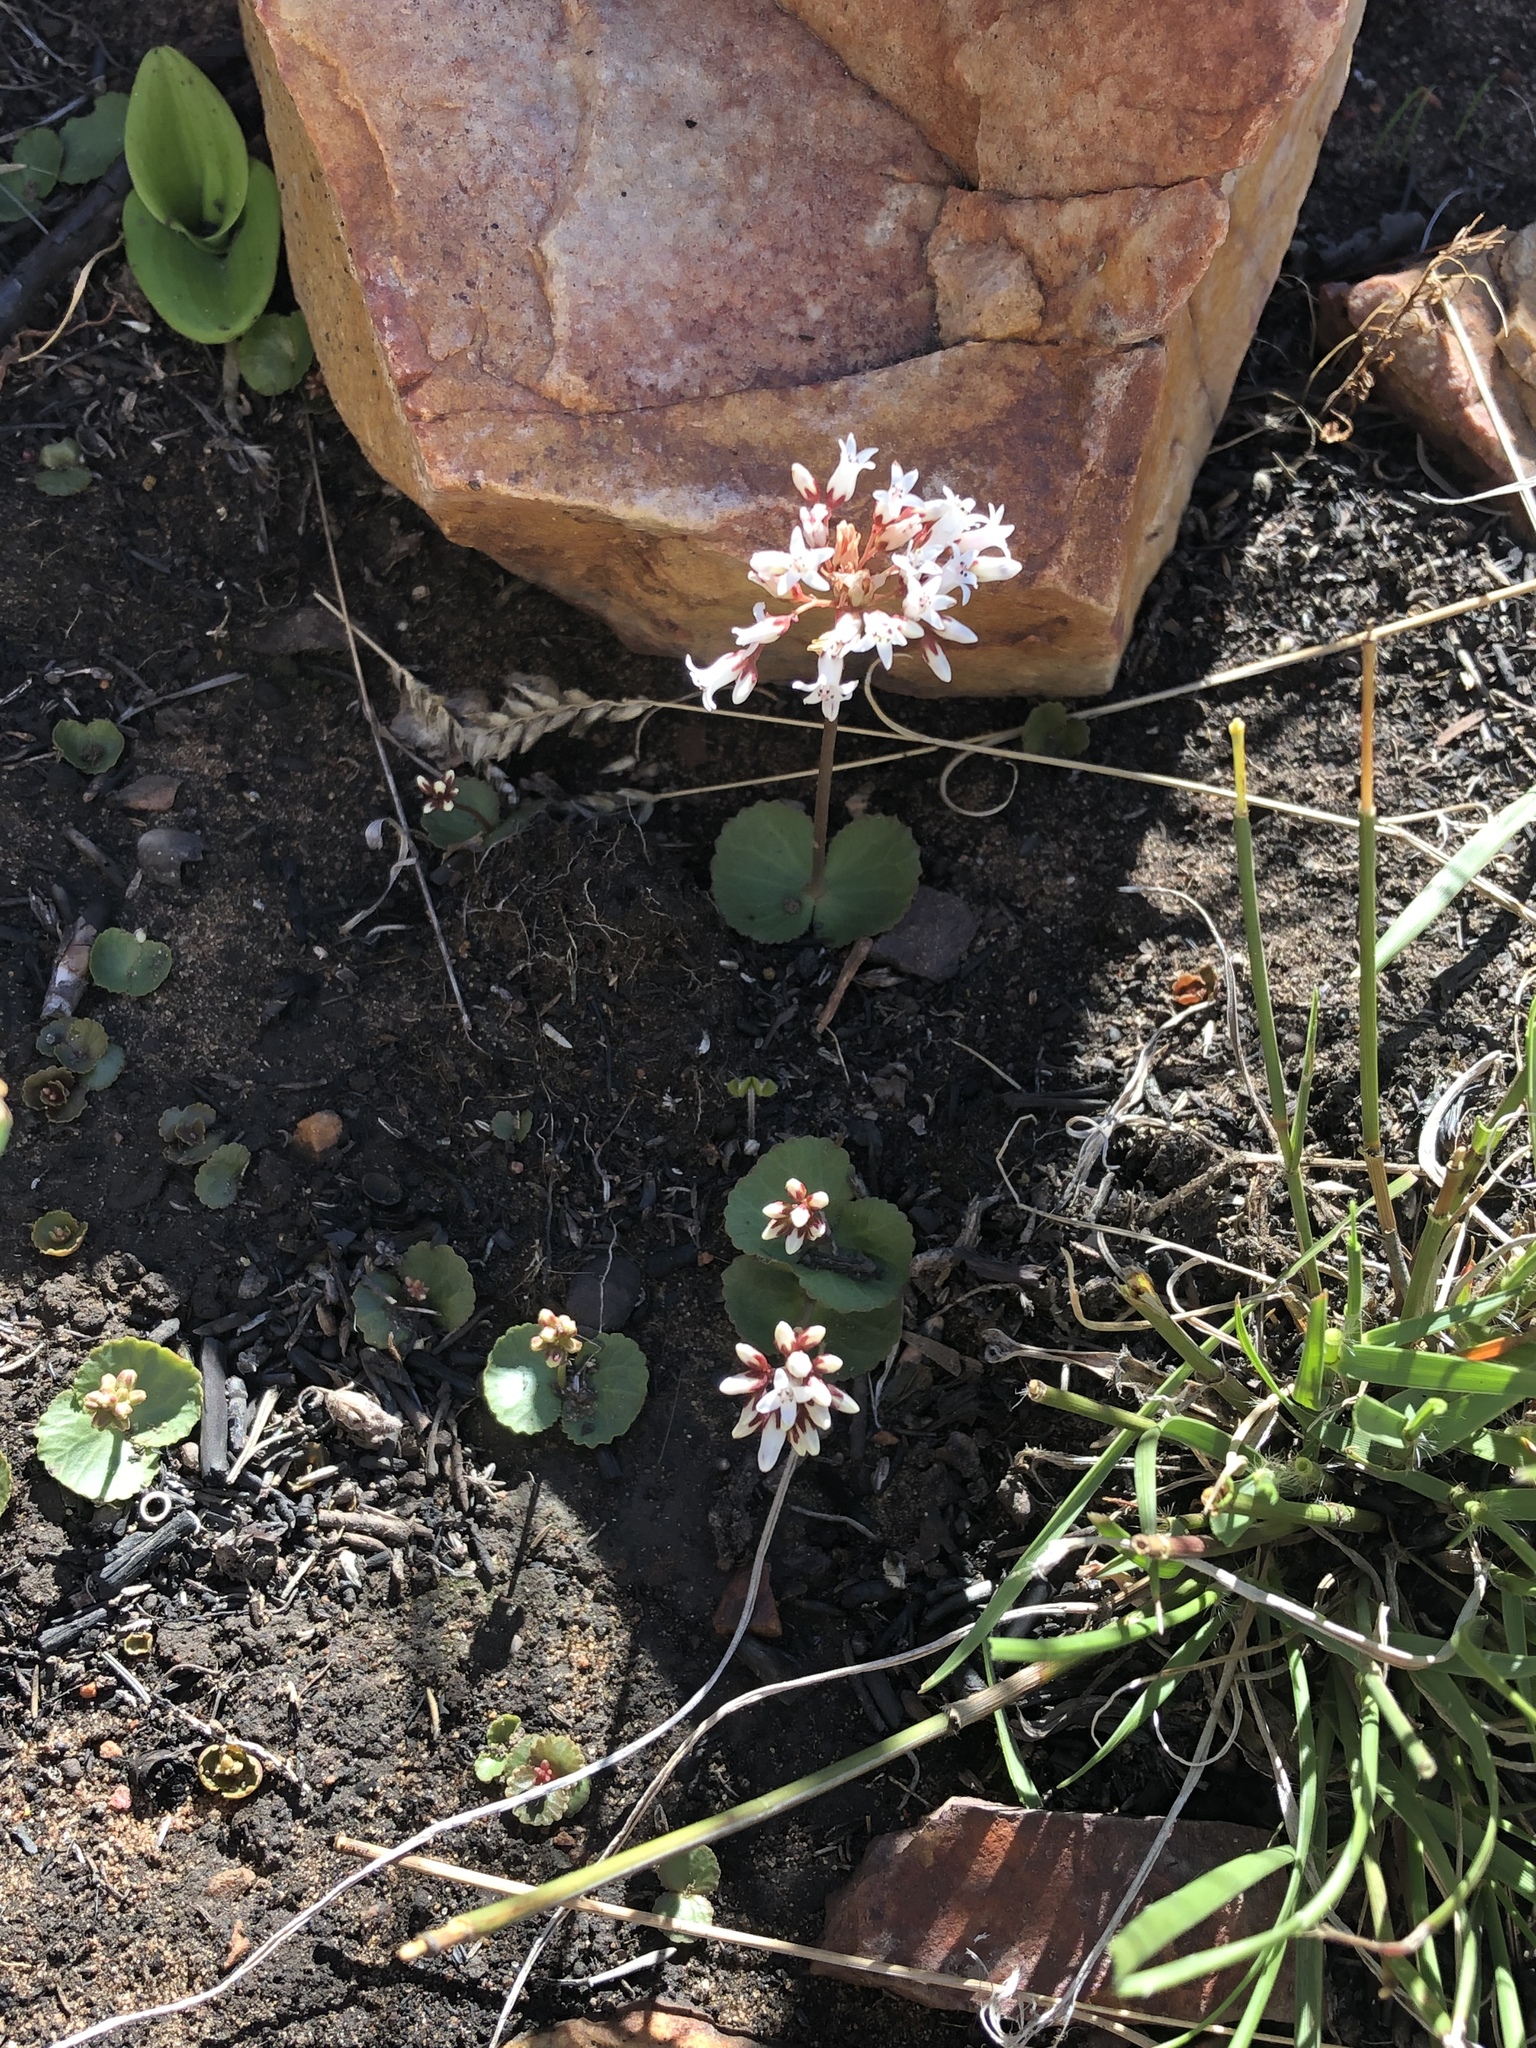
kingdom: Plantae
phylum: Tracheophyta
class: Magnoliopsida
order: Saxifragales
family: Crassulaceae
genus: Crassula
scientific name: Crassula saxifraga
